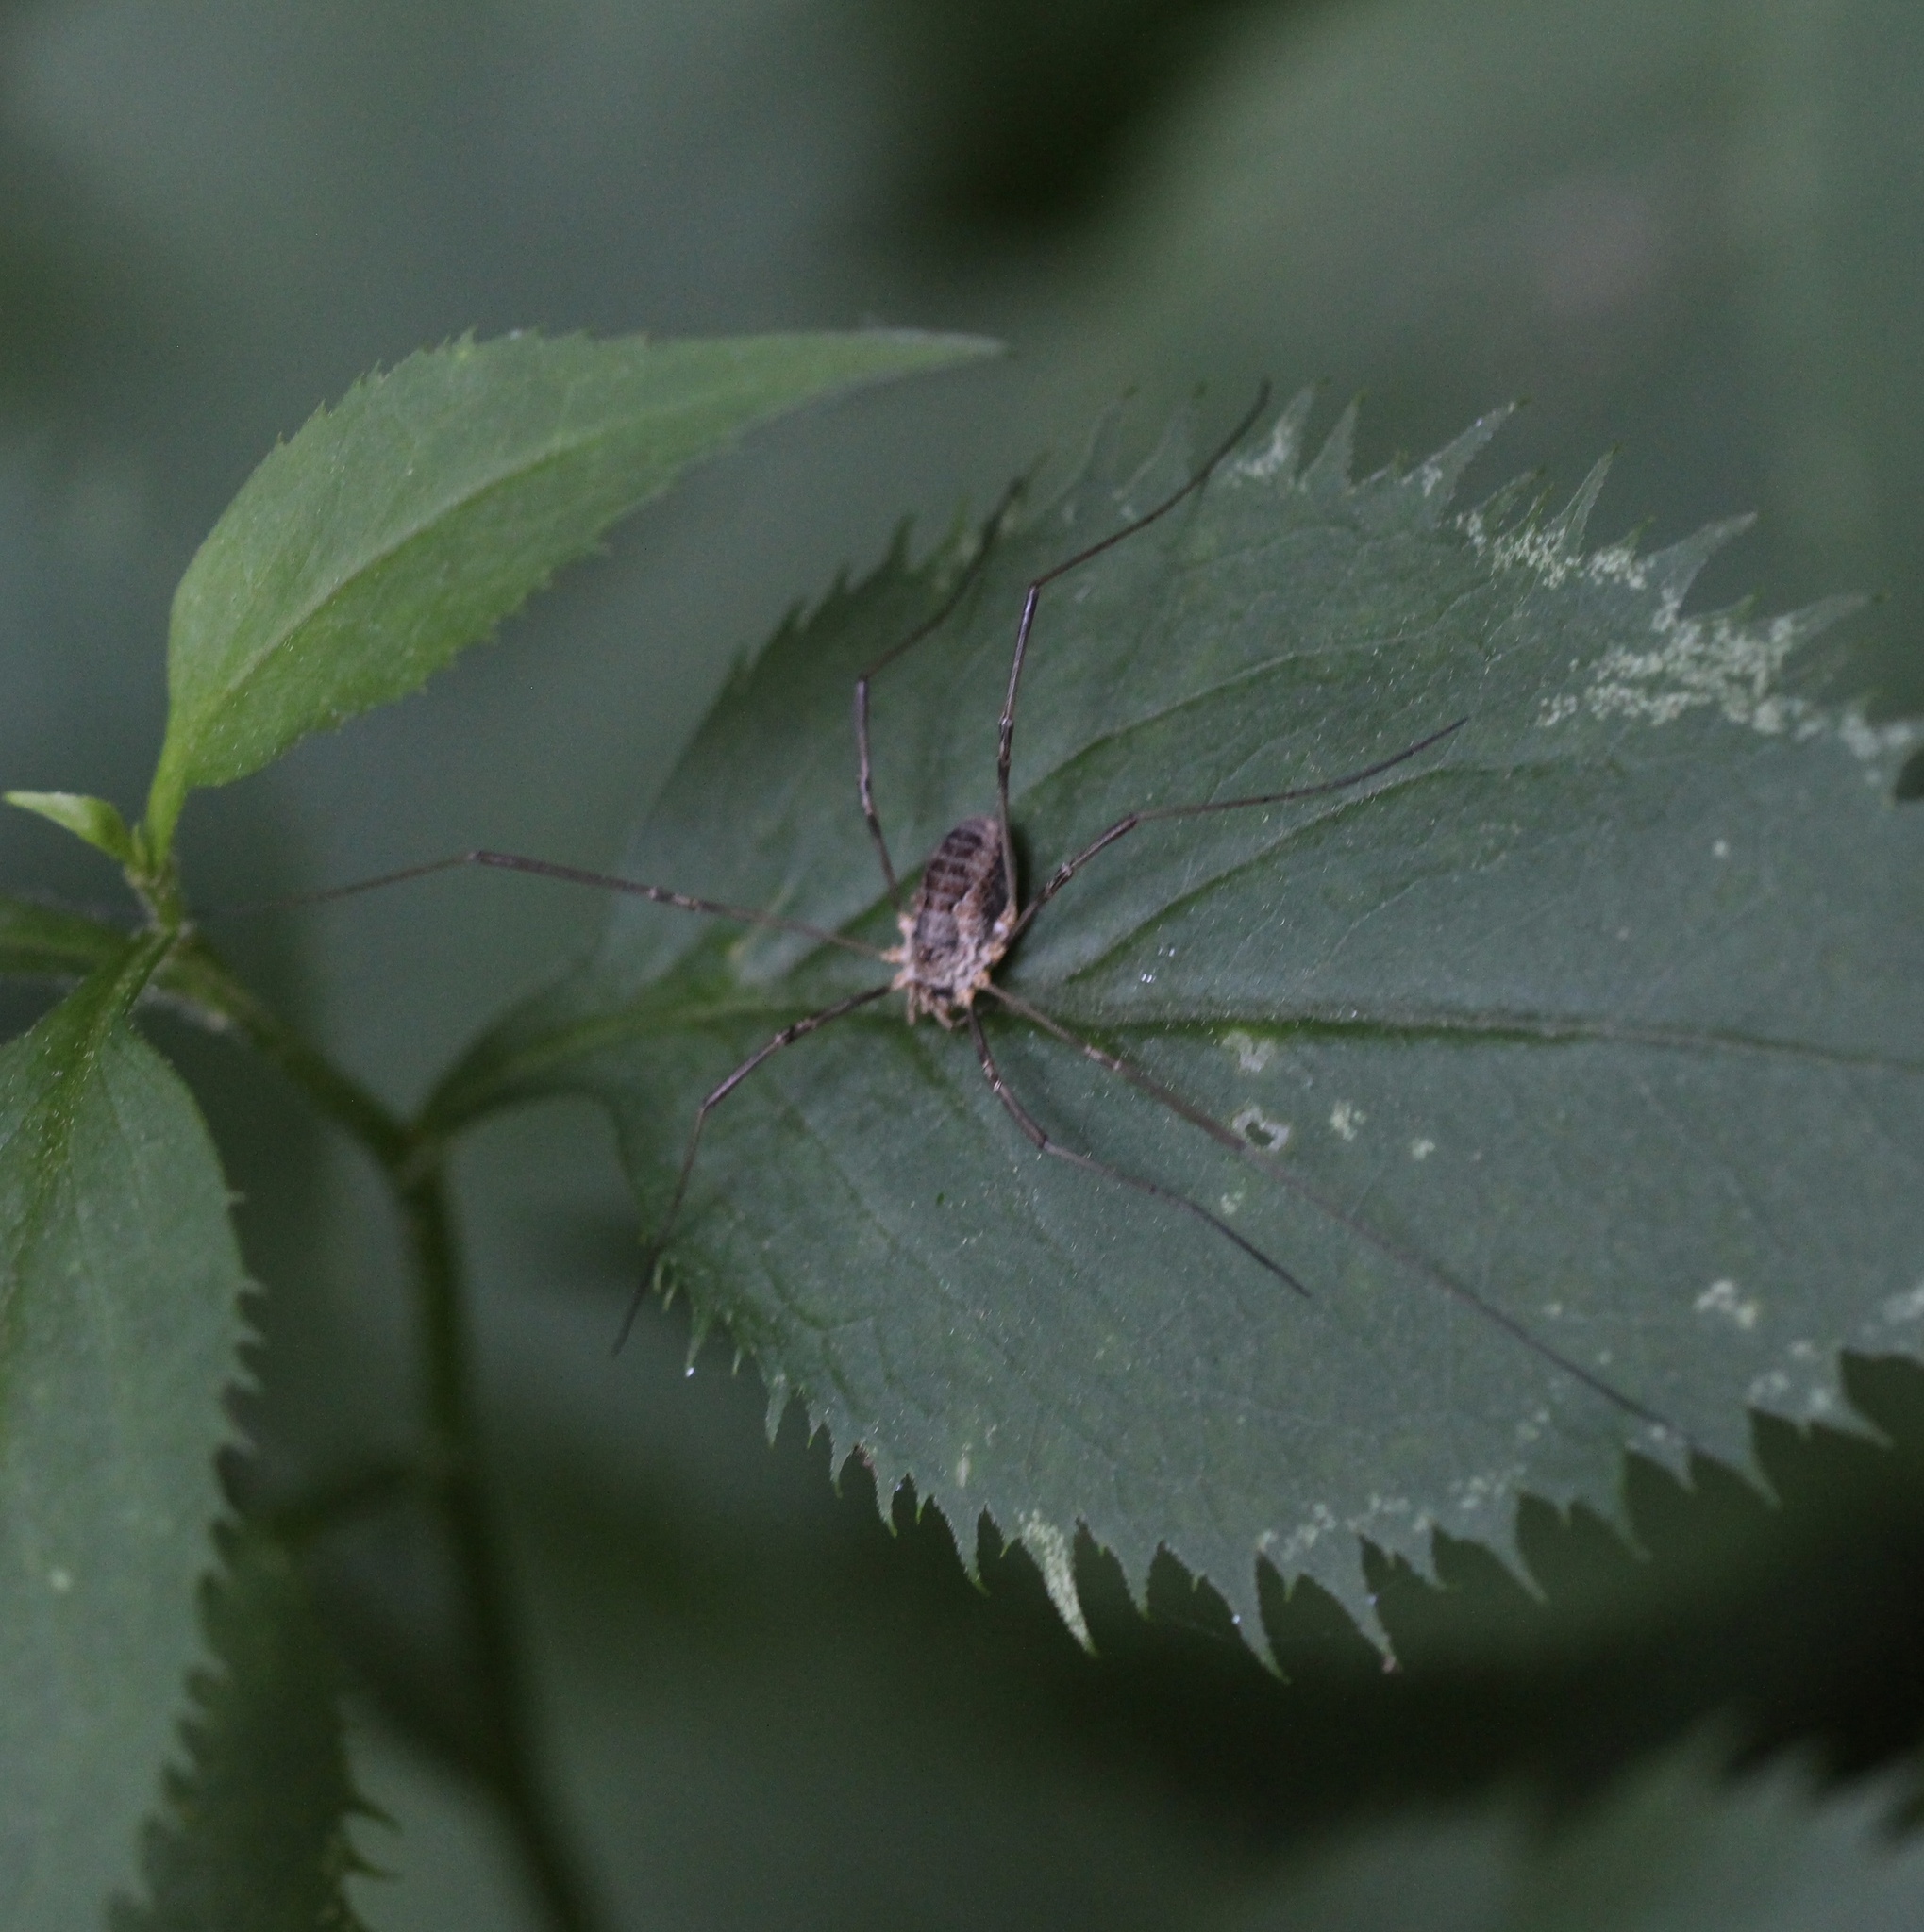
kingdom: Animalia
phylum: Arthropoda
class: Arachnida
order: Opiliones
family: Phalangiidae
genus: Phalangium
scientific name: Phalangium opilio
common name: Daddy longleg
